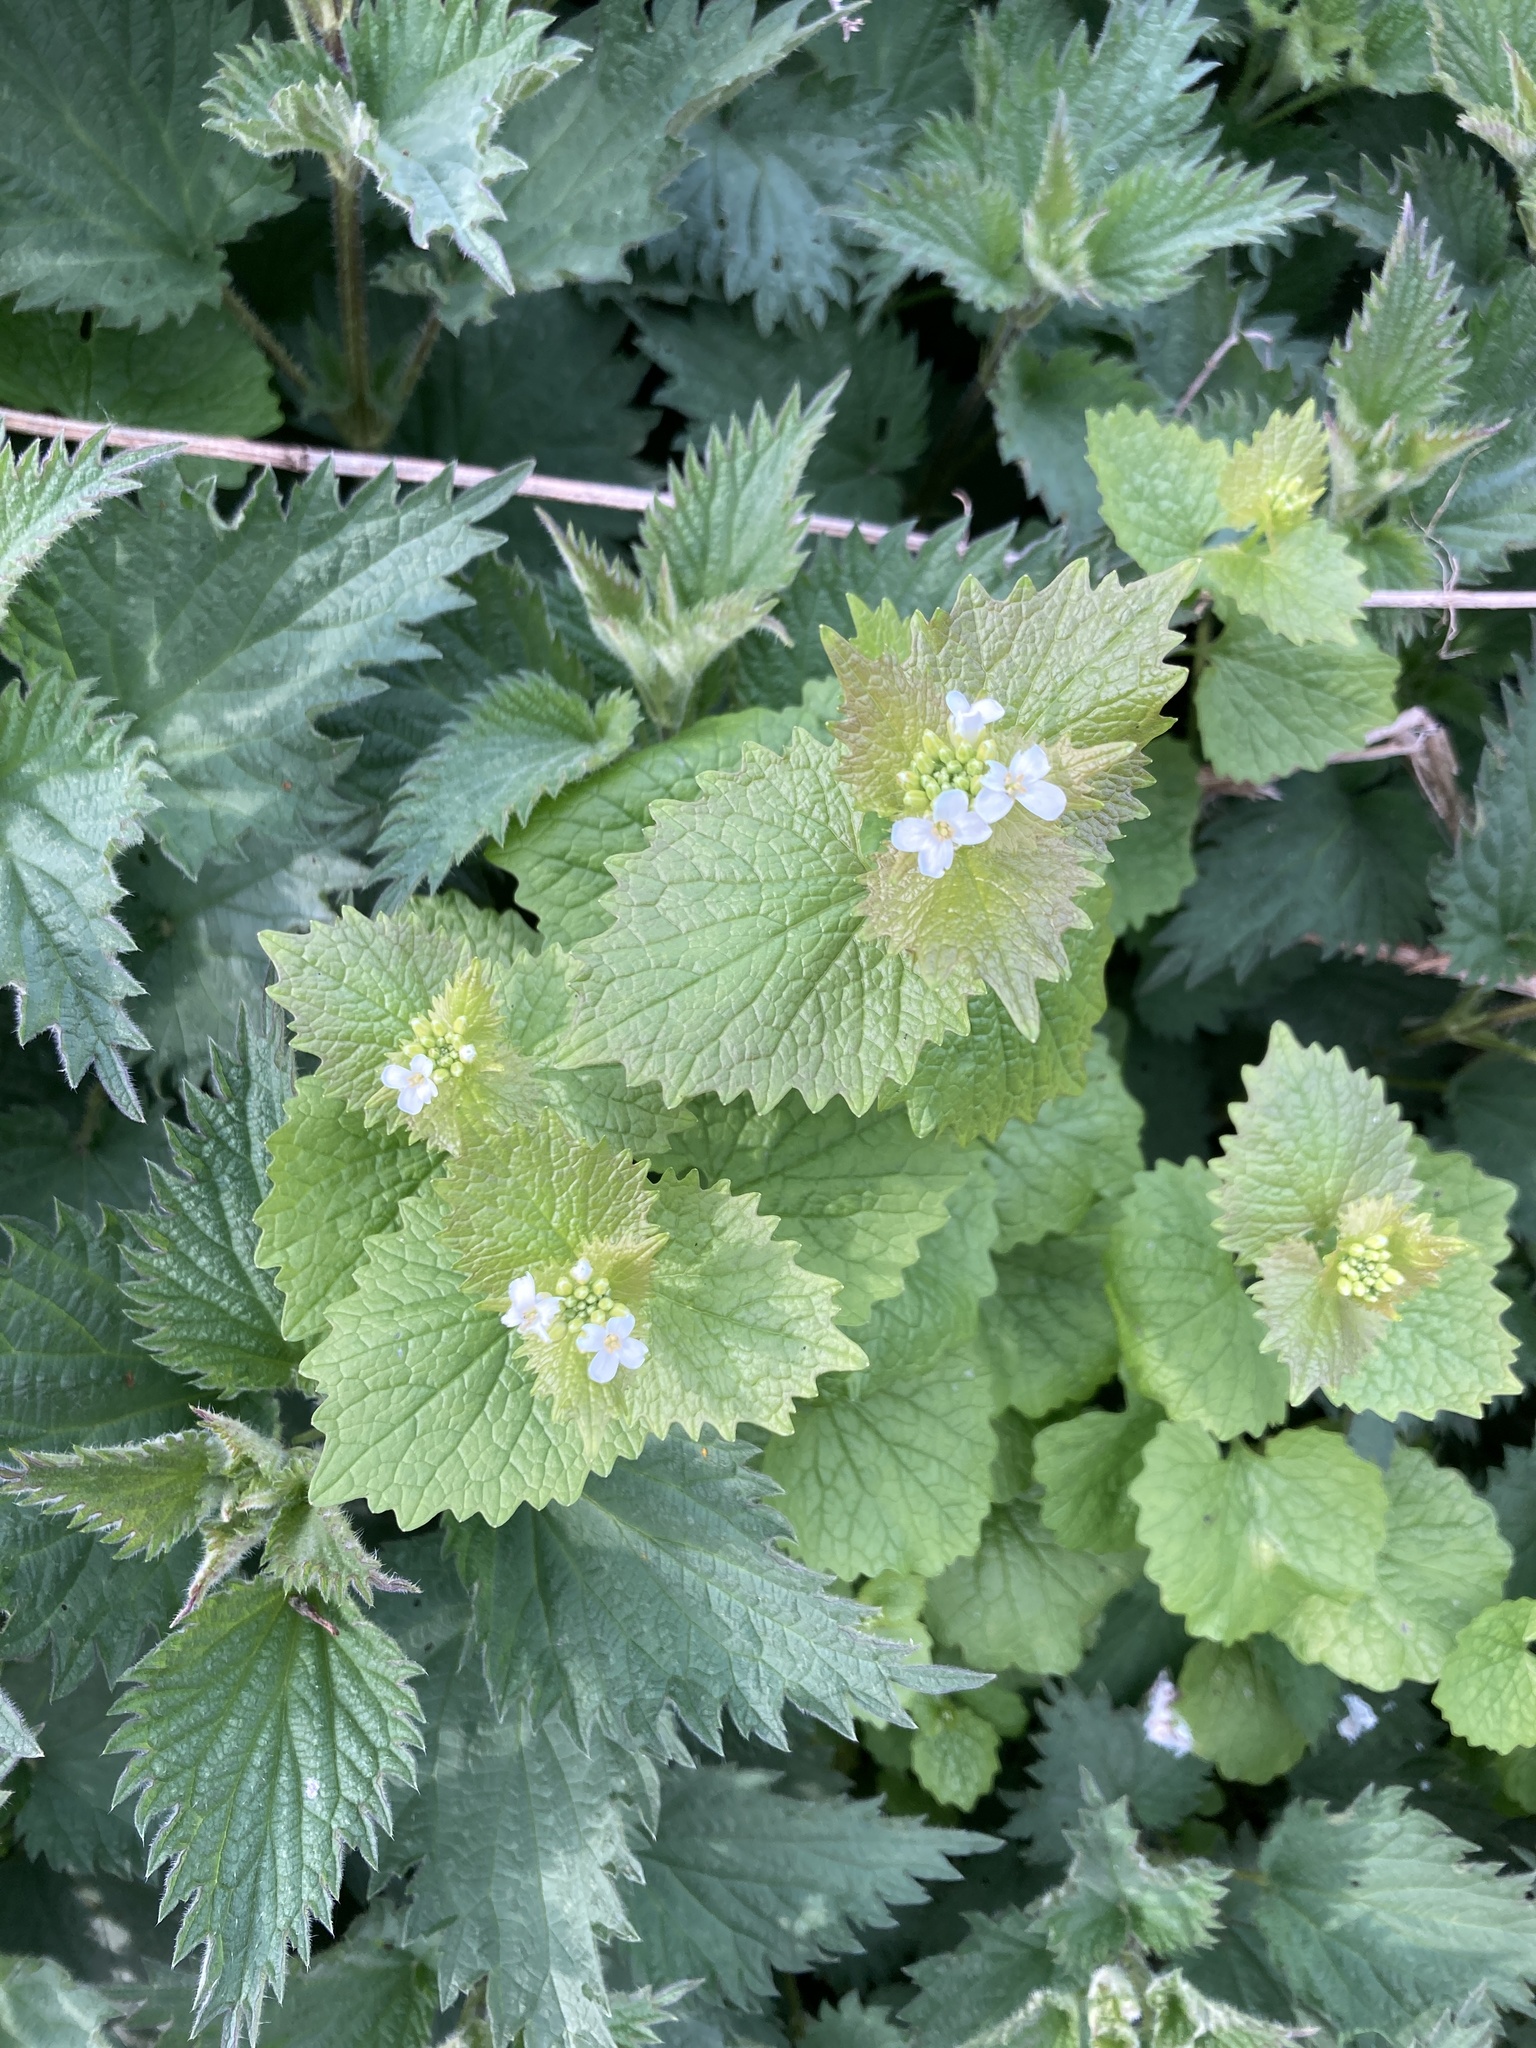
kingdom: Plantae
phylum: Tracheophyta
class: Magnoliopsida
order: Brassicales
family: Brassicaceae
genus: Alliaria
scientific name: Alliaria petiolata
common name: Garlic mustard
